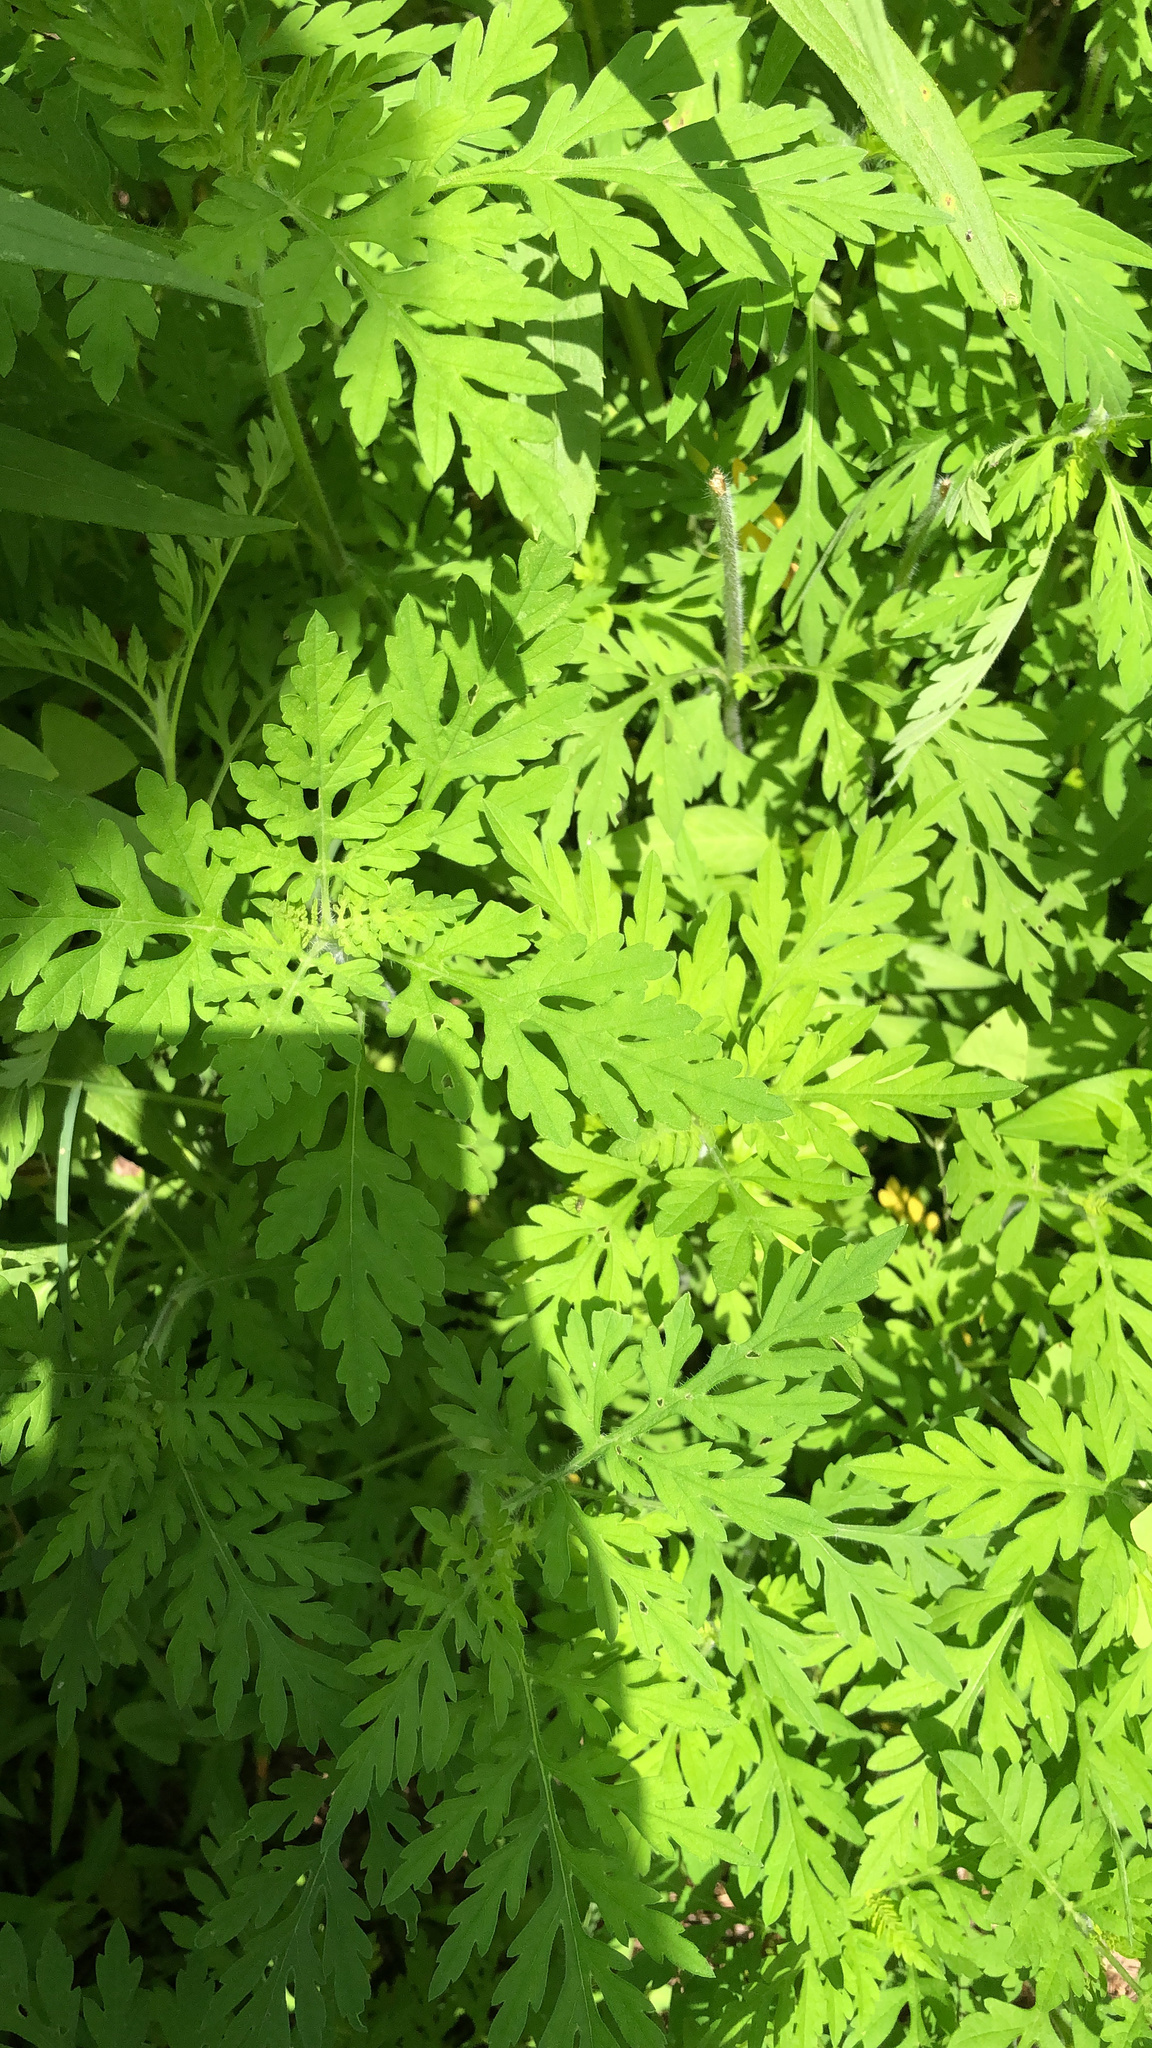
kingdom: Plantae
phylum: Tracheophyta
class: Magnoliopsida
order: Asterales
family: Asteraceae
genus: Ambrosia
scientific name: Ambrosia artemisiifolia
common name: Annual ragweed
